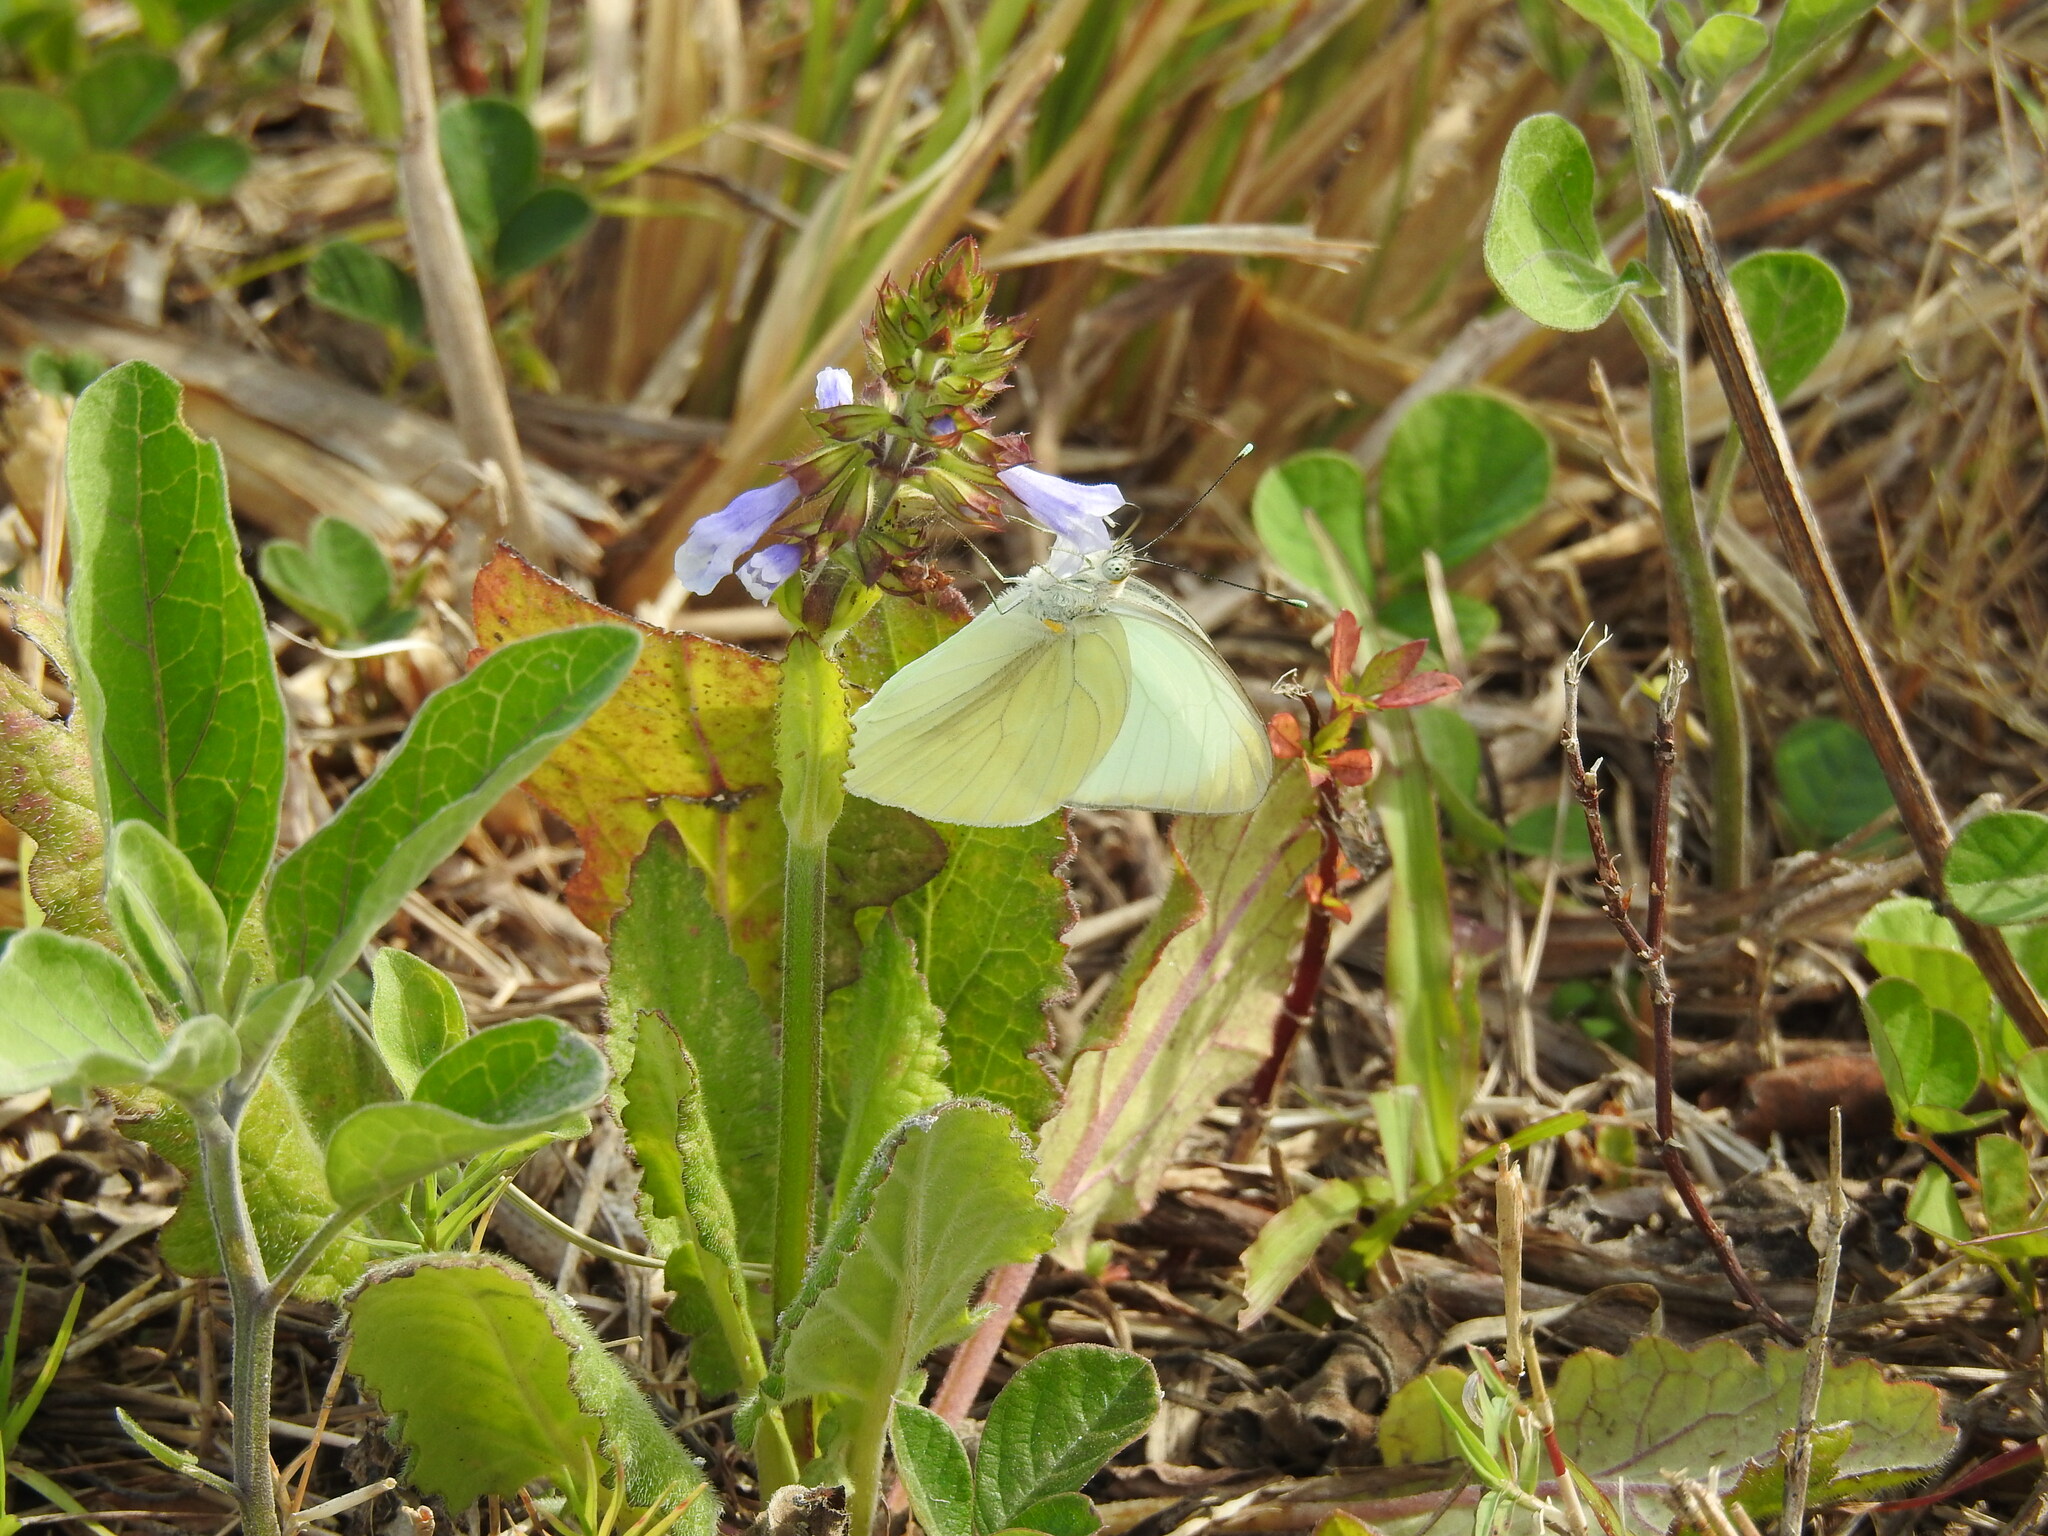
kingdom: Animalia
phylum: Arthropoda
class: Insecta
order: Lepidoptera
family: Pieridae
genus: Ascia
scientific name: Ascia monuste
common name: Great southern white
